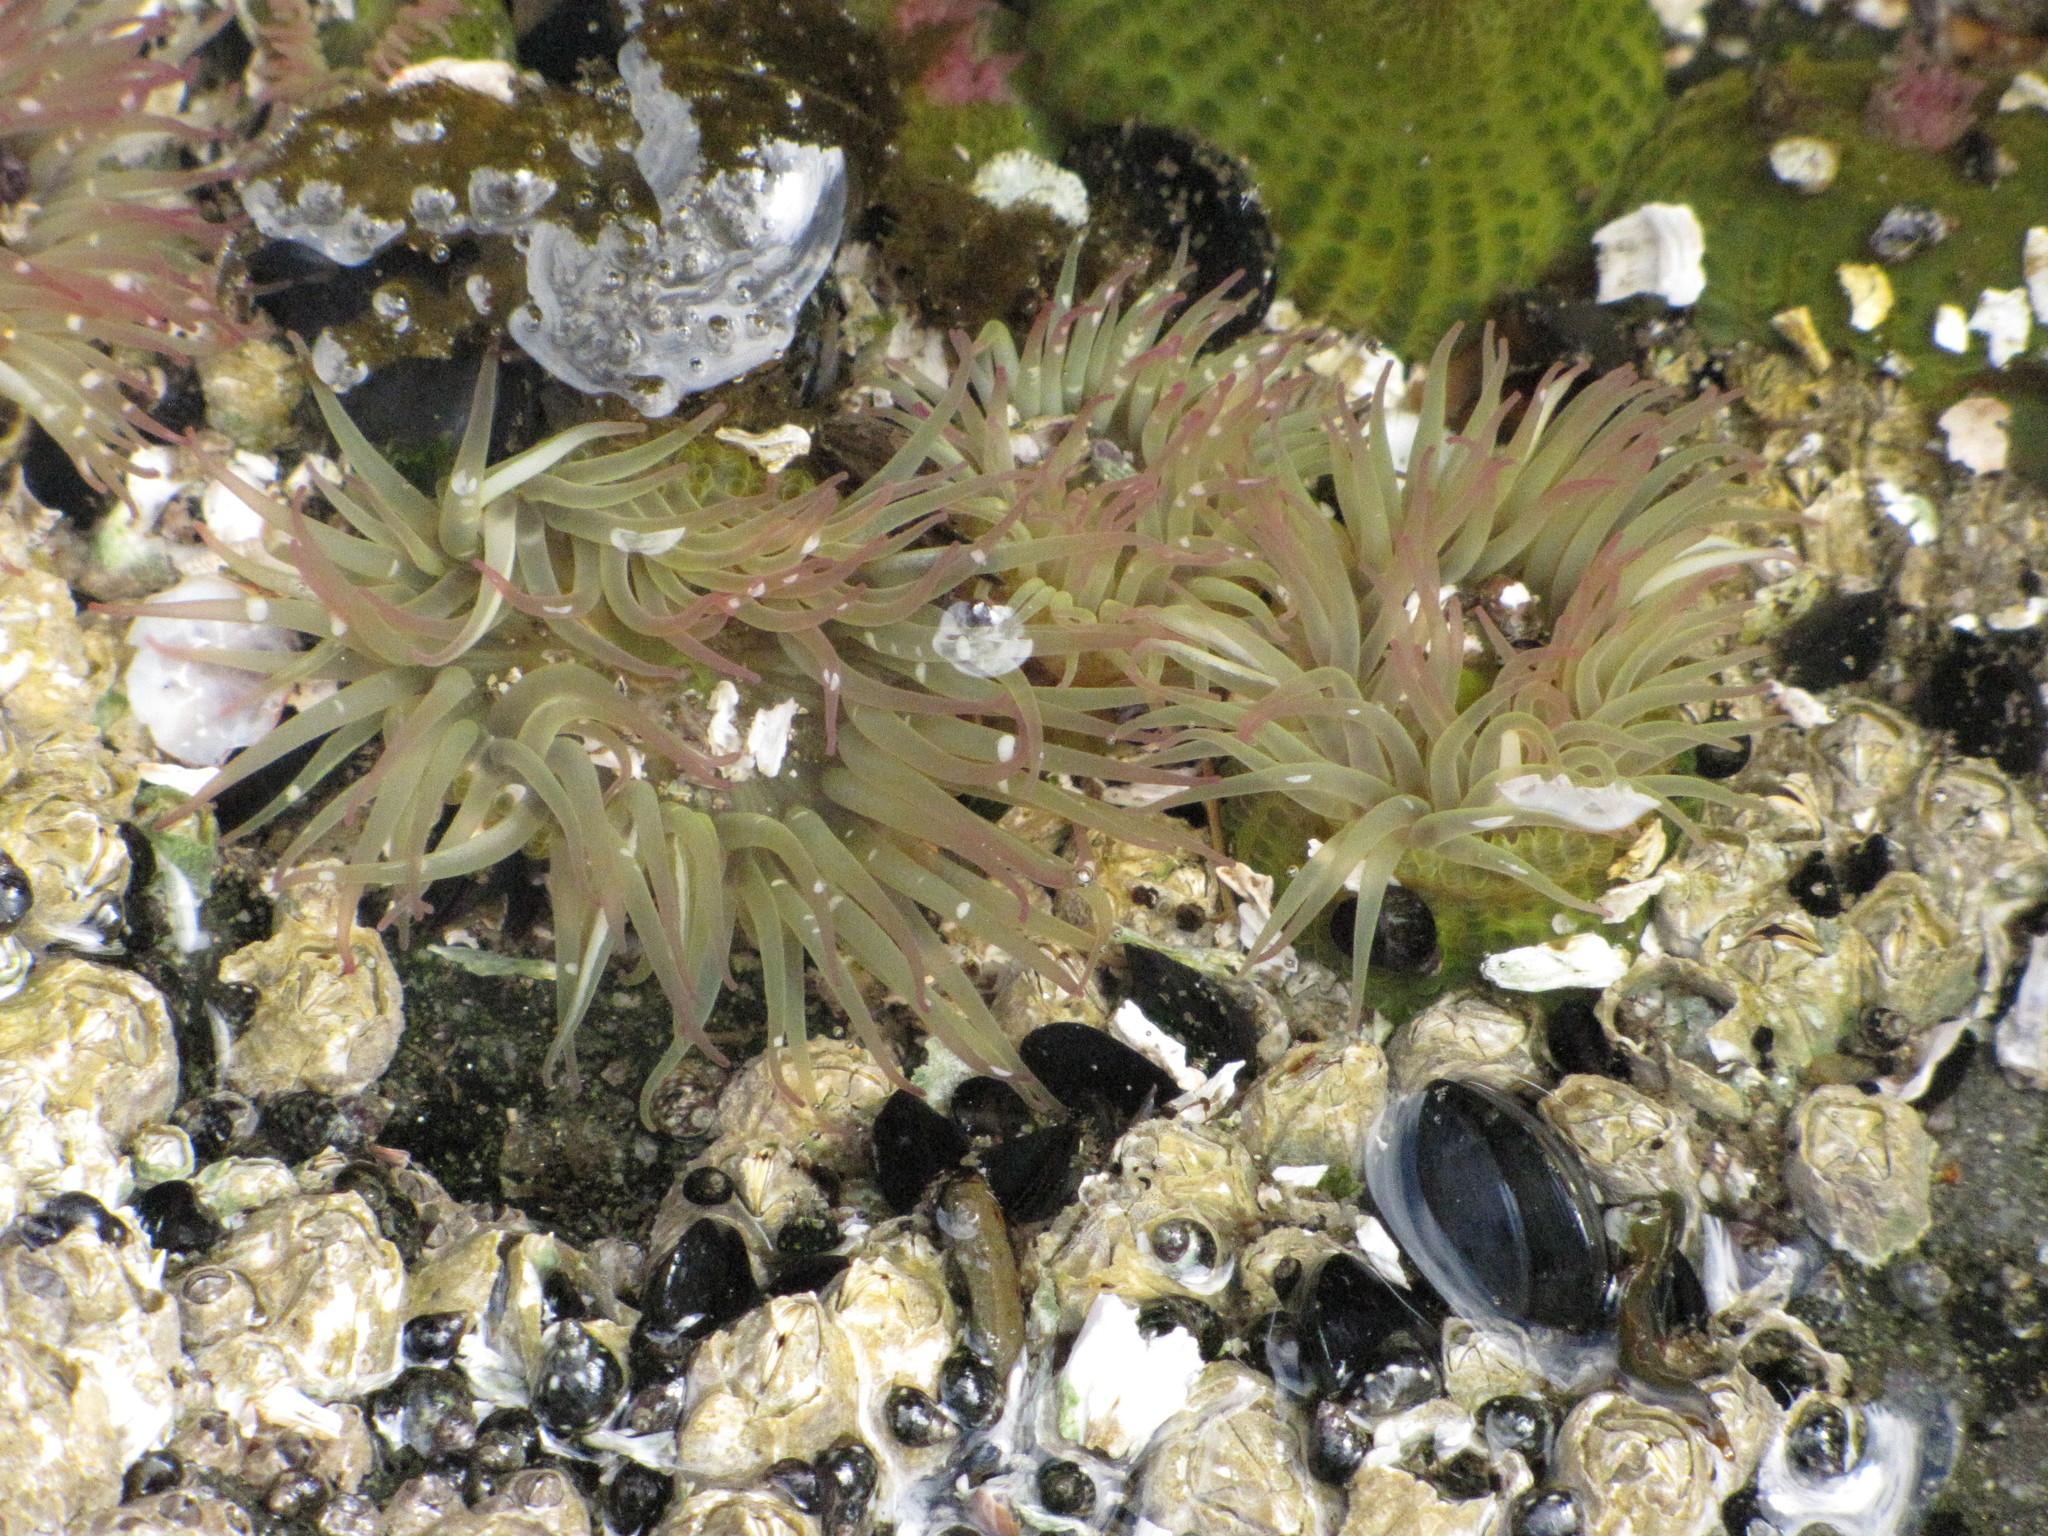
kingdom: Animalia
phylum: Cnidaria
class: Anthozoa
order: Actiniaria
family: Actiniidae
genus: Anthopleura
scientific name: Anthopleura elegantissima
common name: Clonal anemone
